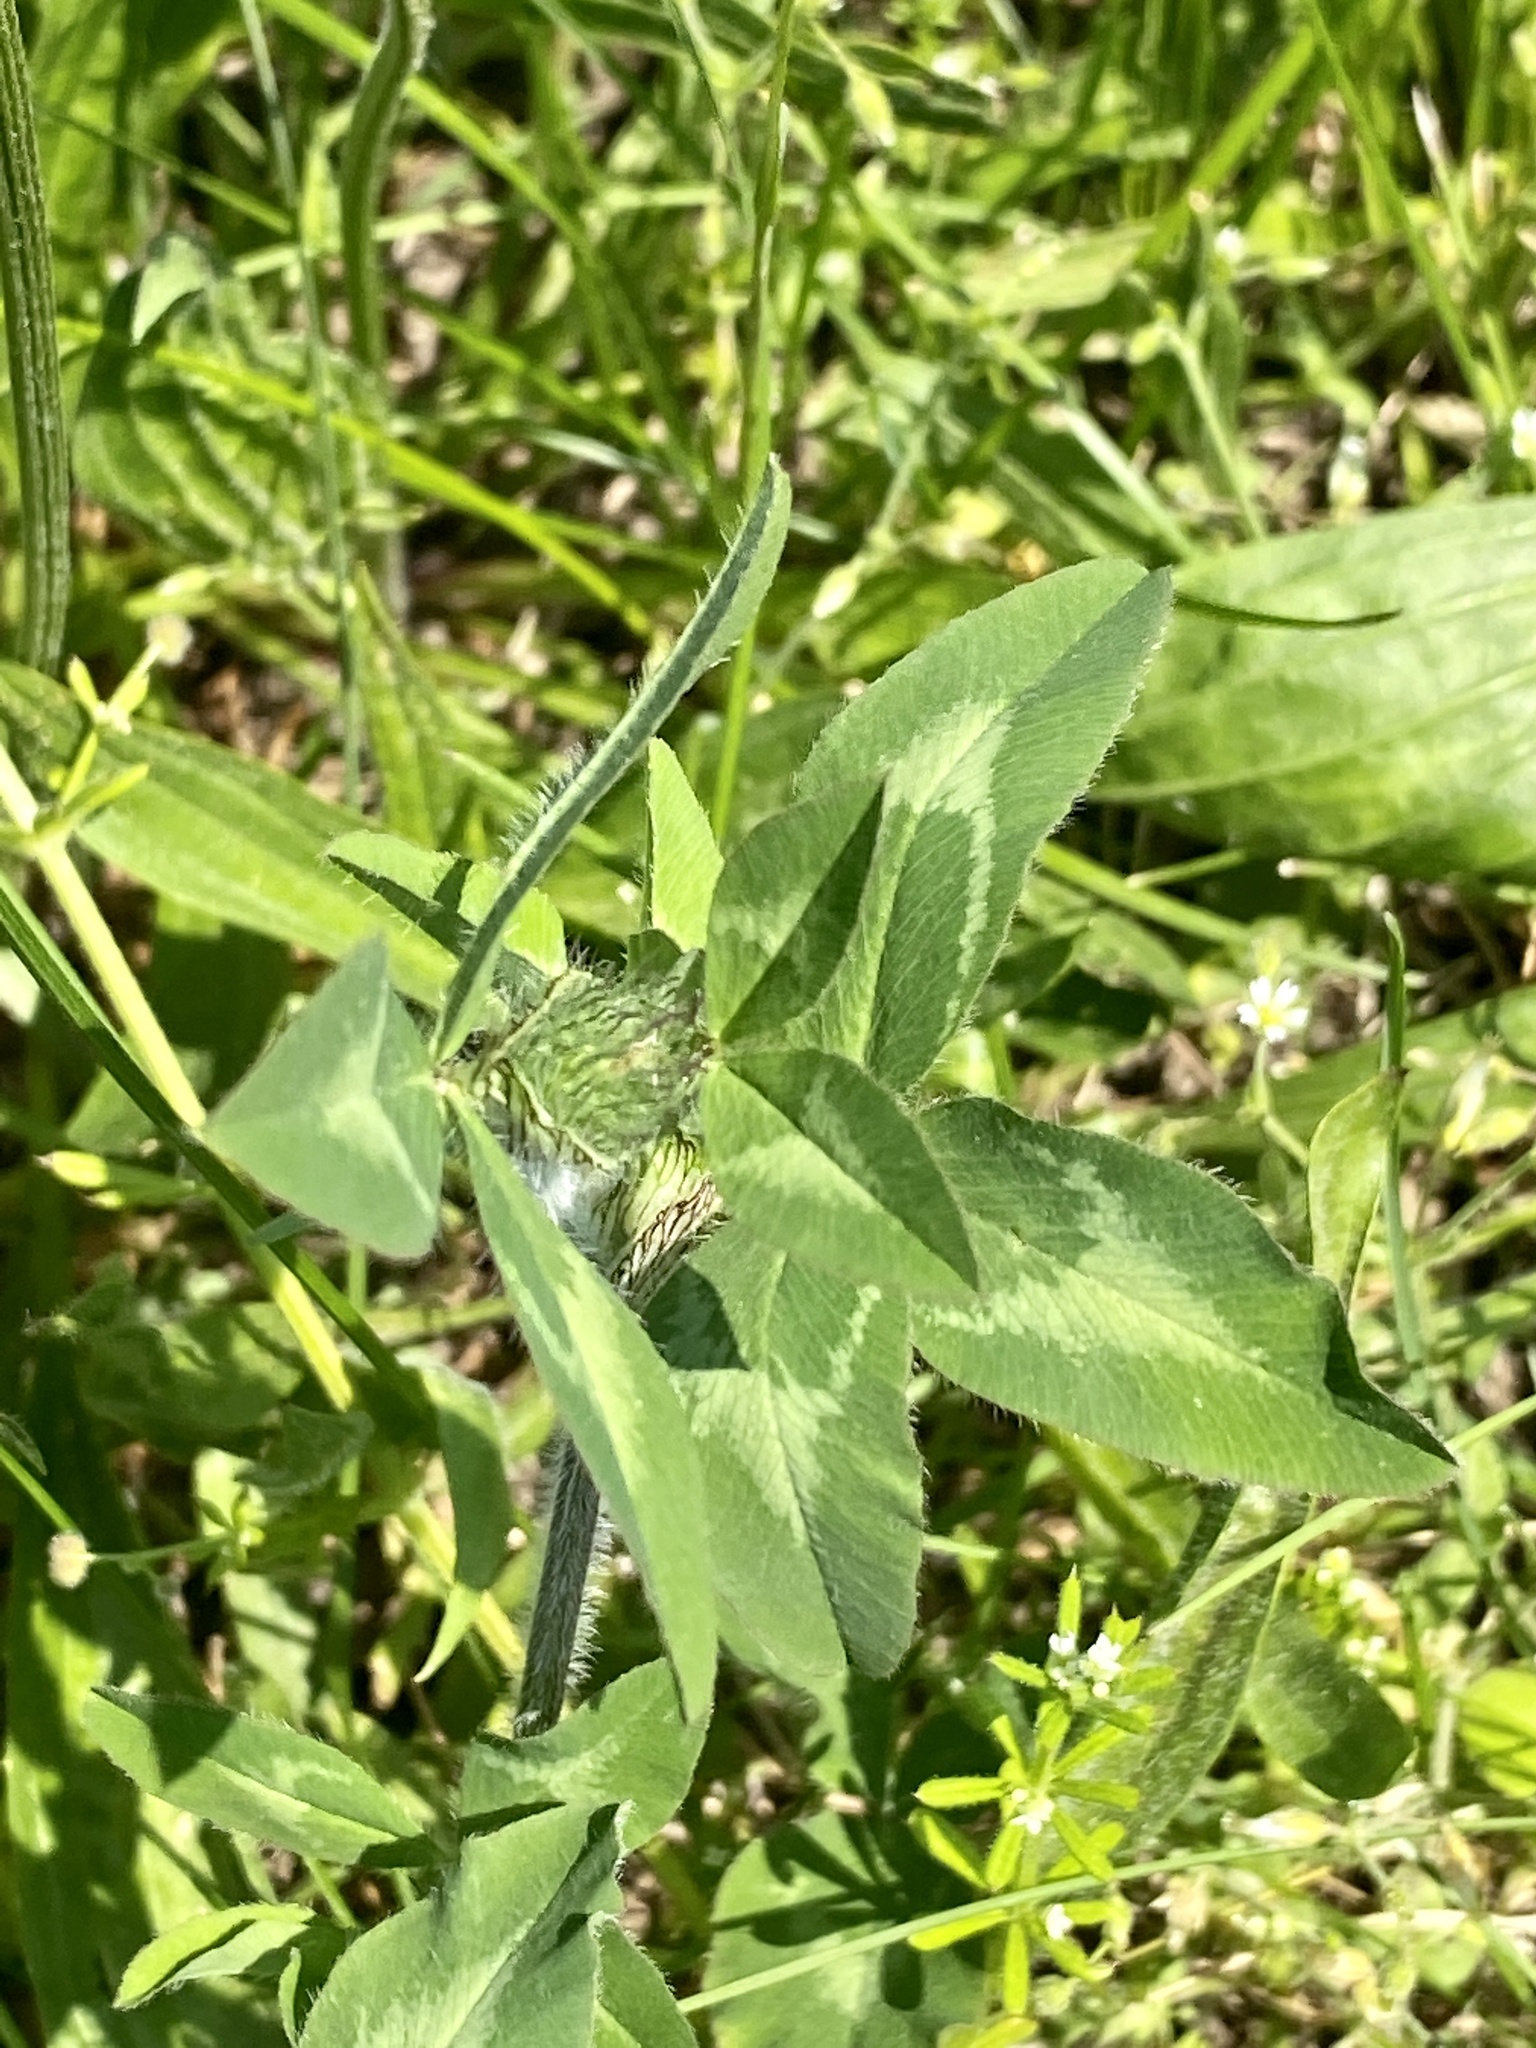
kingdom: Plantae
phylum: Tracheophyta
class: Magnoliopsida
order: Fabales
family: Fabaceae
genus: Trifolium
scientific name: Trifolium pratense
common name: Red clover
